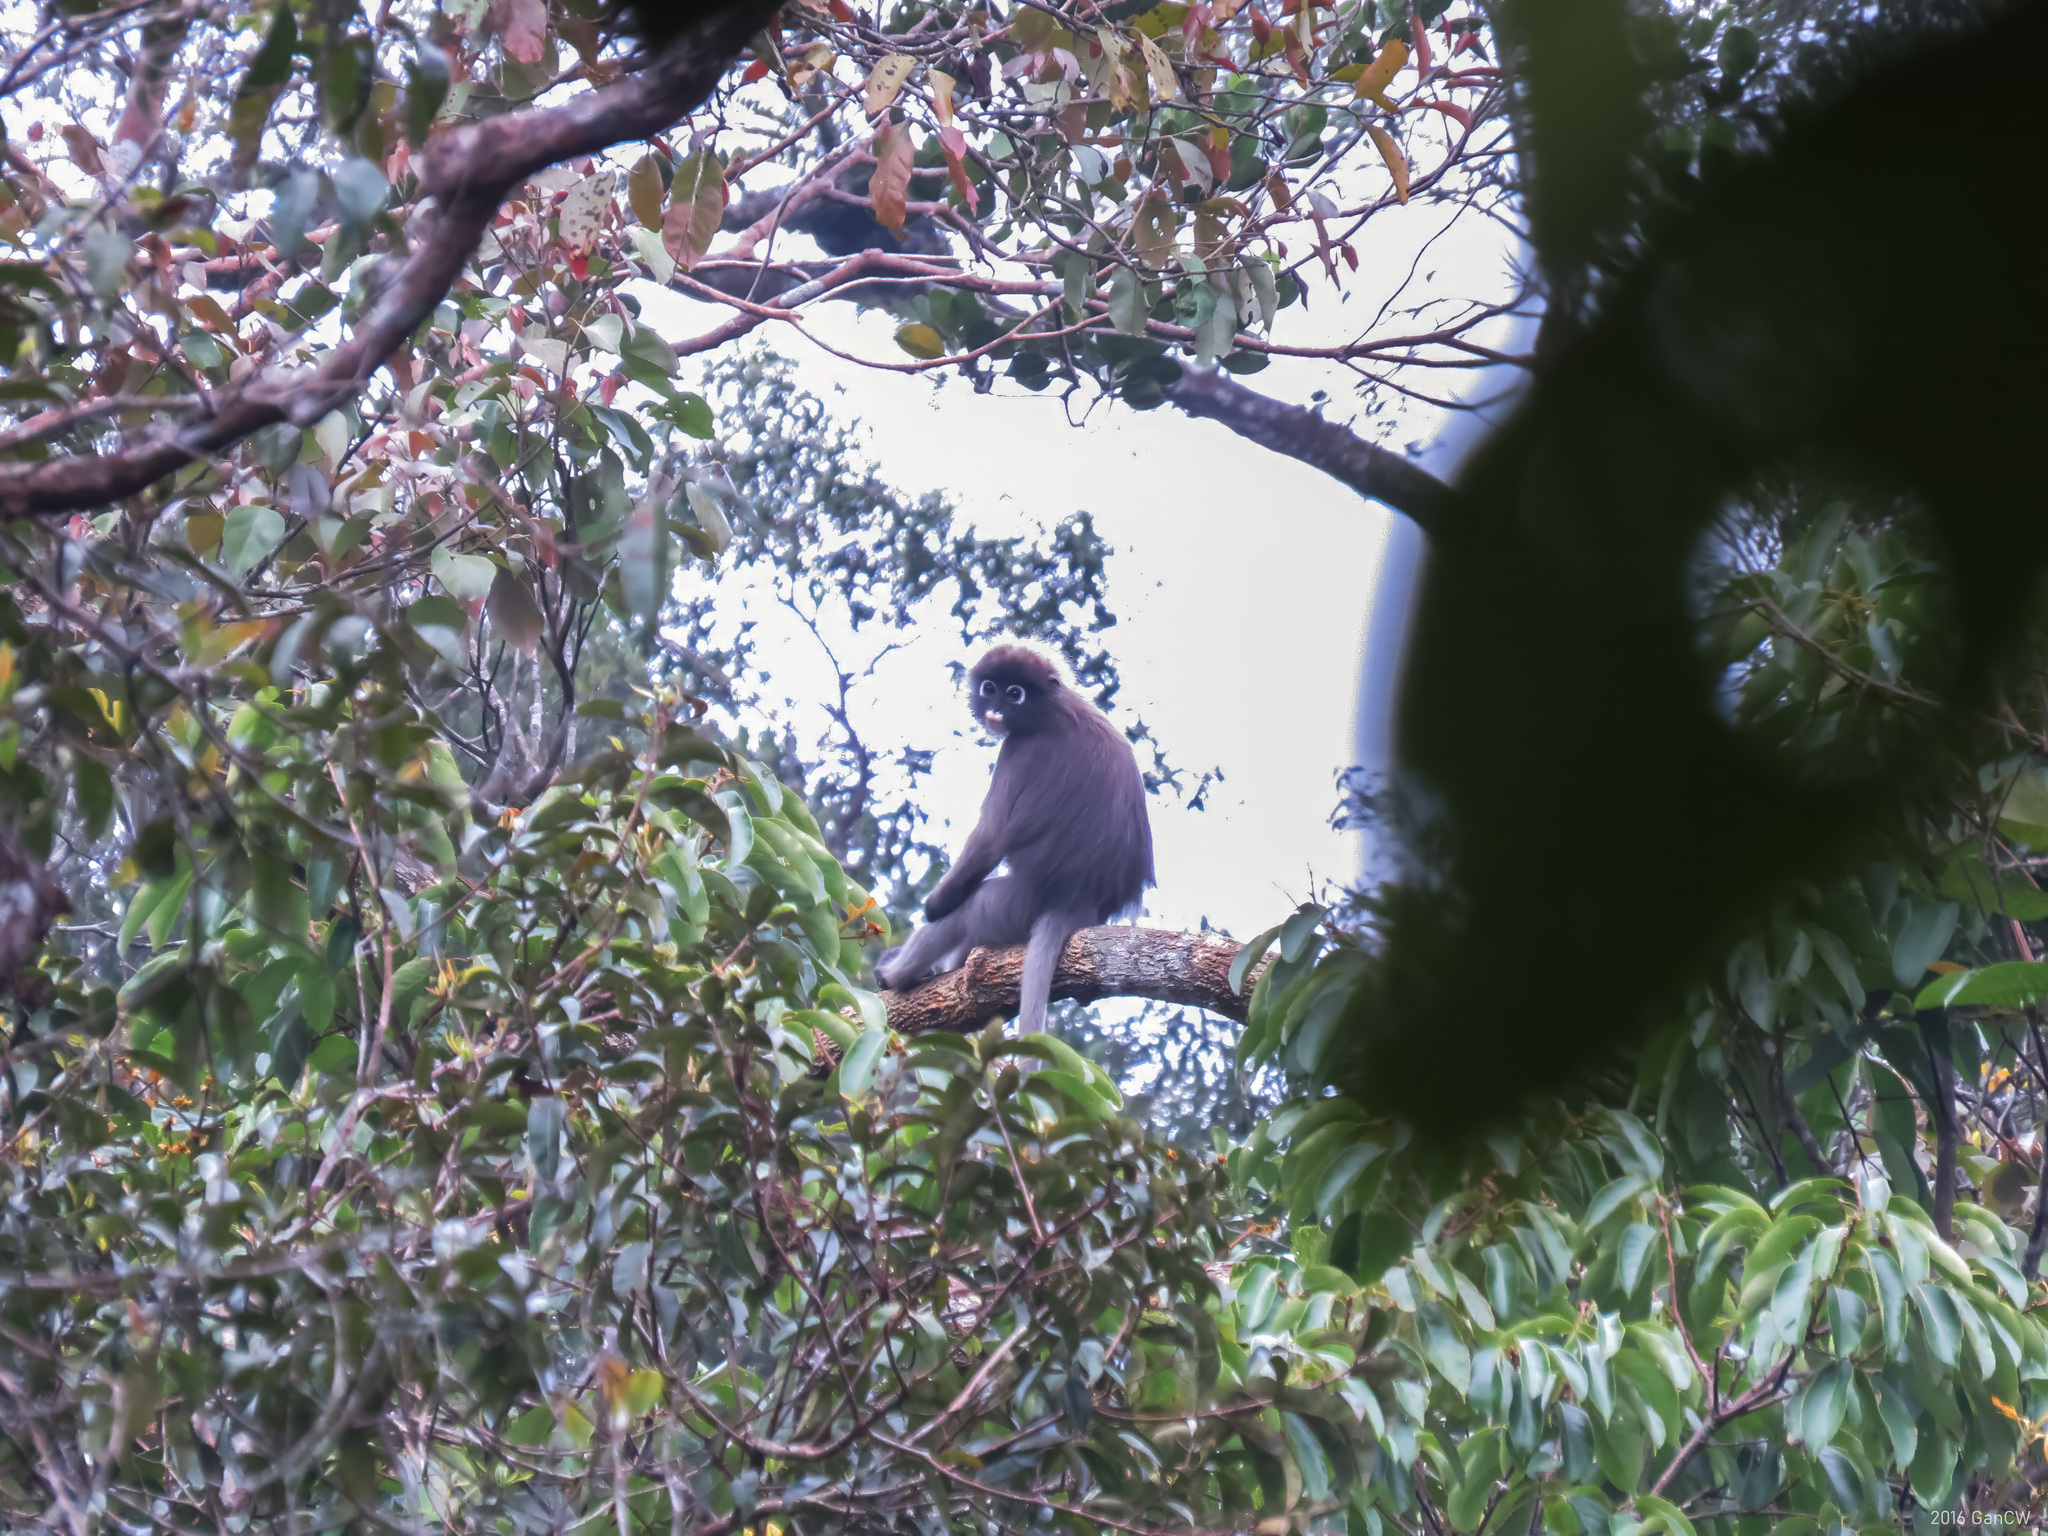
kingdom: Animalia
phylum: Chordata
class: Mammalia
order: Primates
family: Cercopithecidae
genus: Trachypithecus
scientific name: Trachypithecus obscurus
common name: Dusky leaf-monkey
